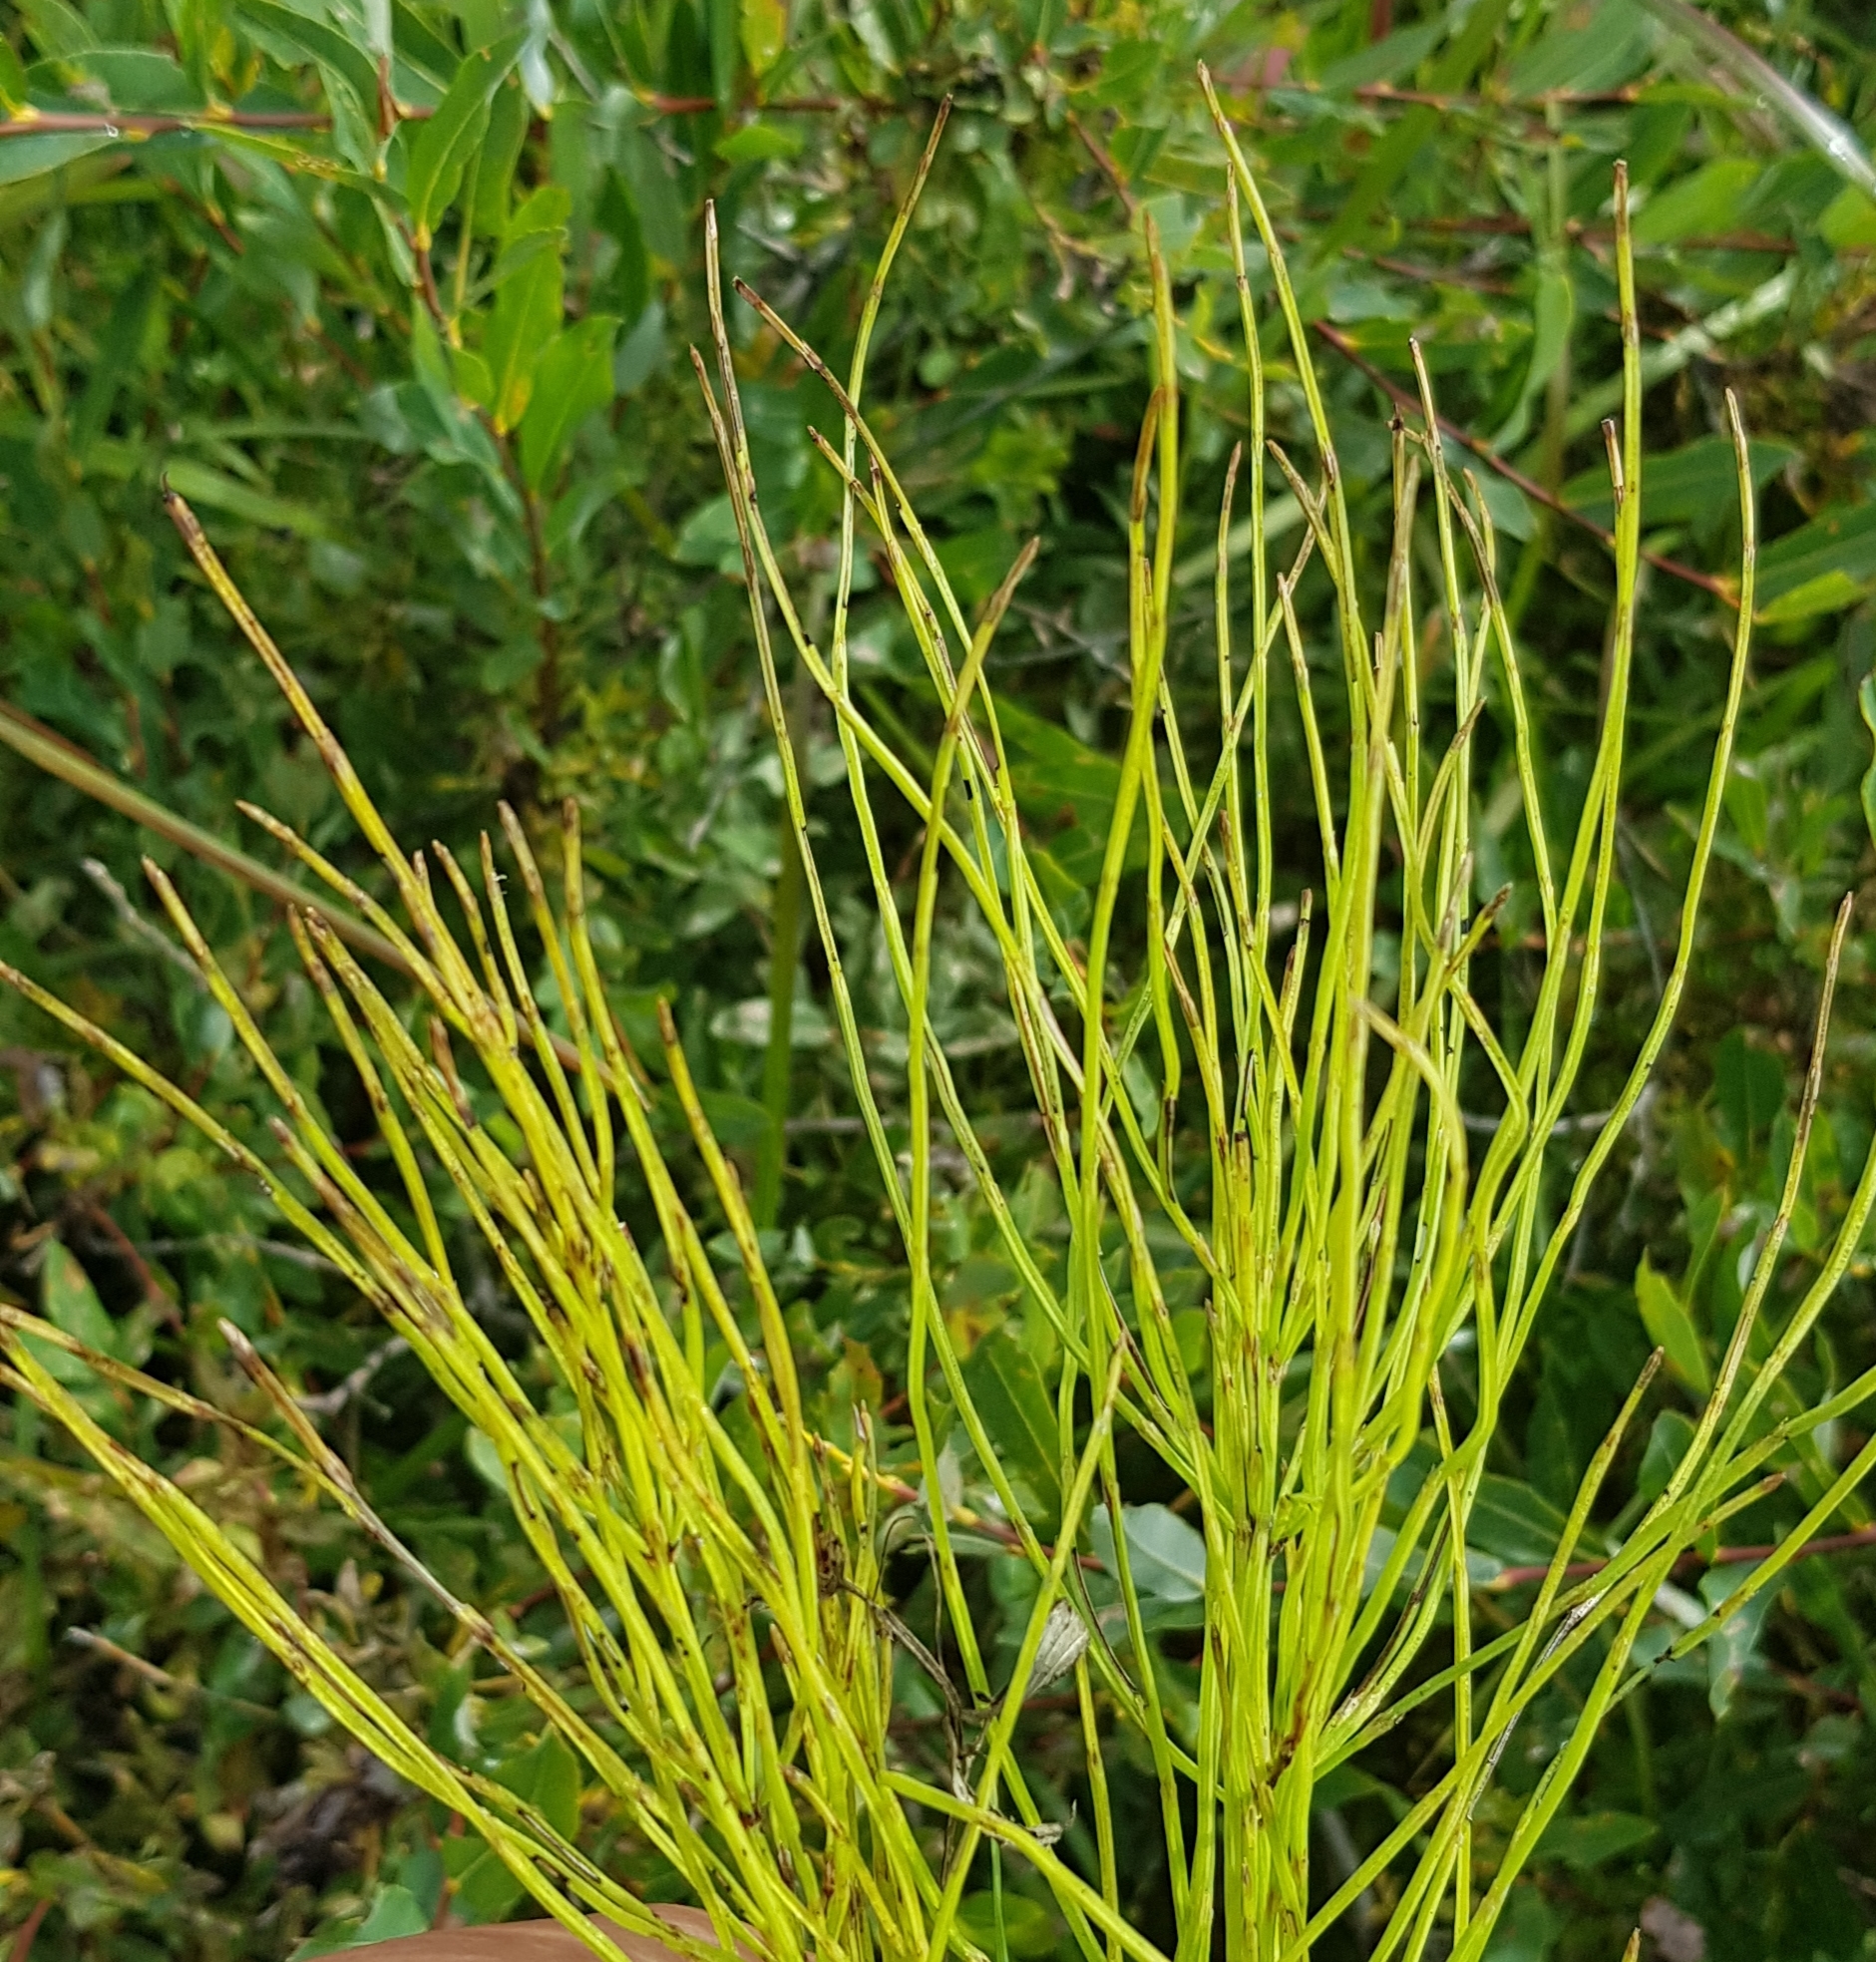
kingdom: Plantae
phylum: Tracheophyta
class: Polypodiopsida
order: Equisetales
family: Equisetaceae
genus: Equisetum
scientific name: Equisetum arvense
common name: Field horsetail
